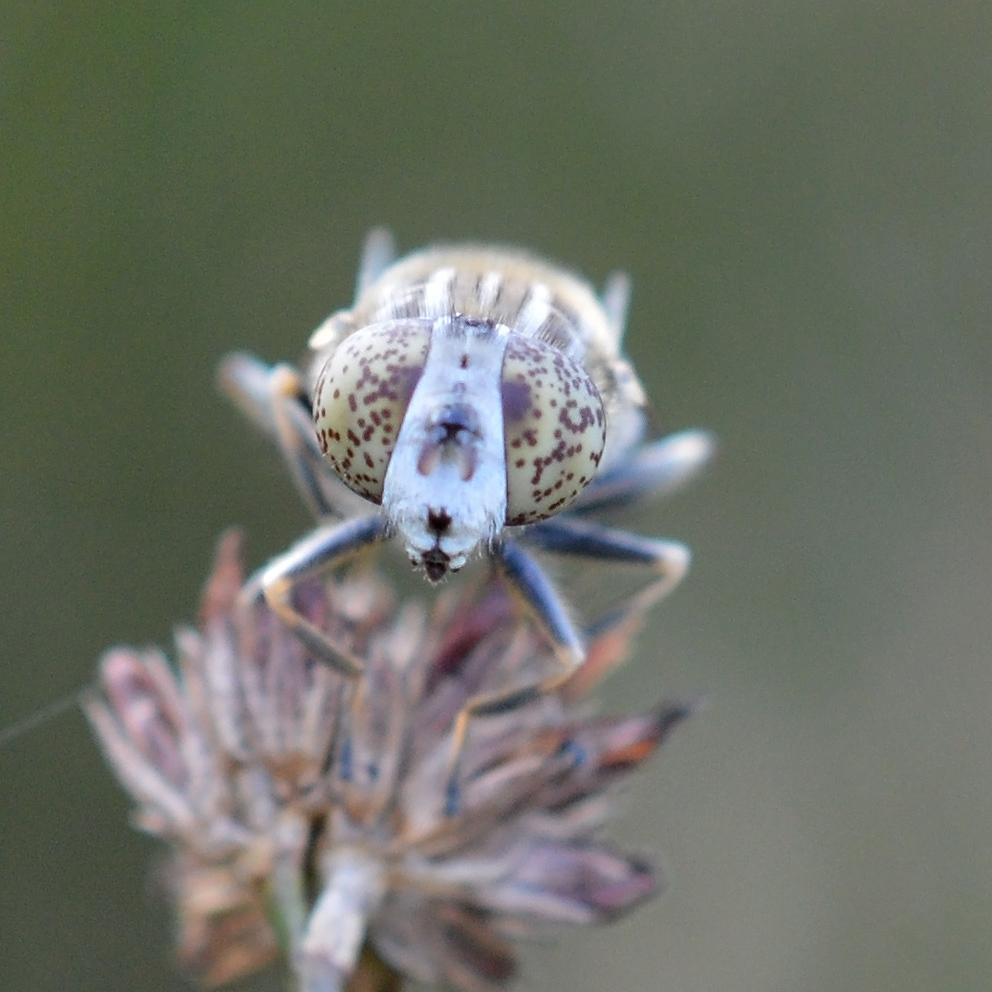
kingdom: Animalia
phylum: Arthropoda
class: Insecta
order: Diptera
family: Syrphidae
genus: Eristalinus
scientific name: Eristalinus sepulchralis
